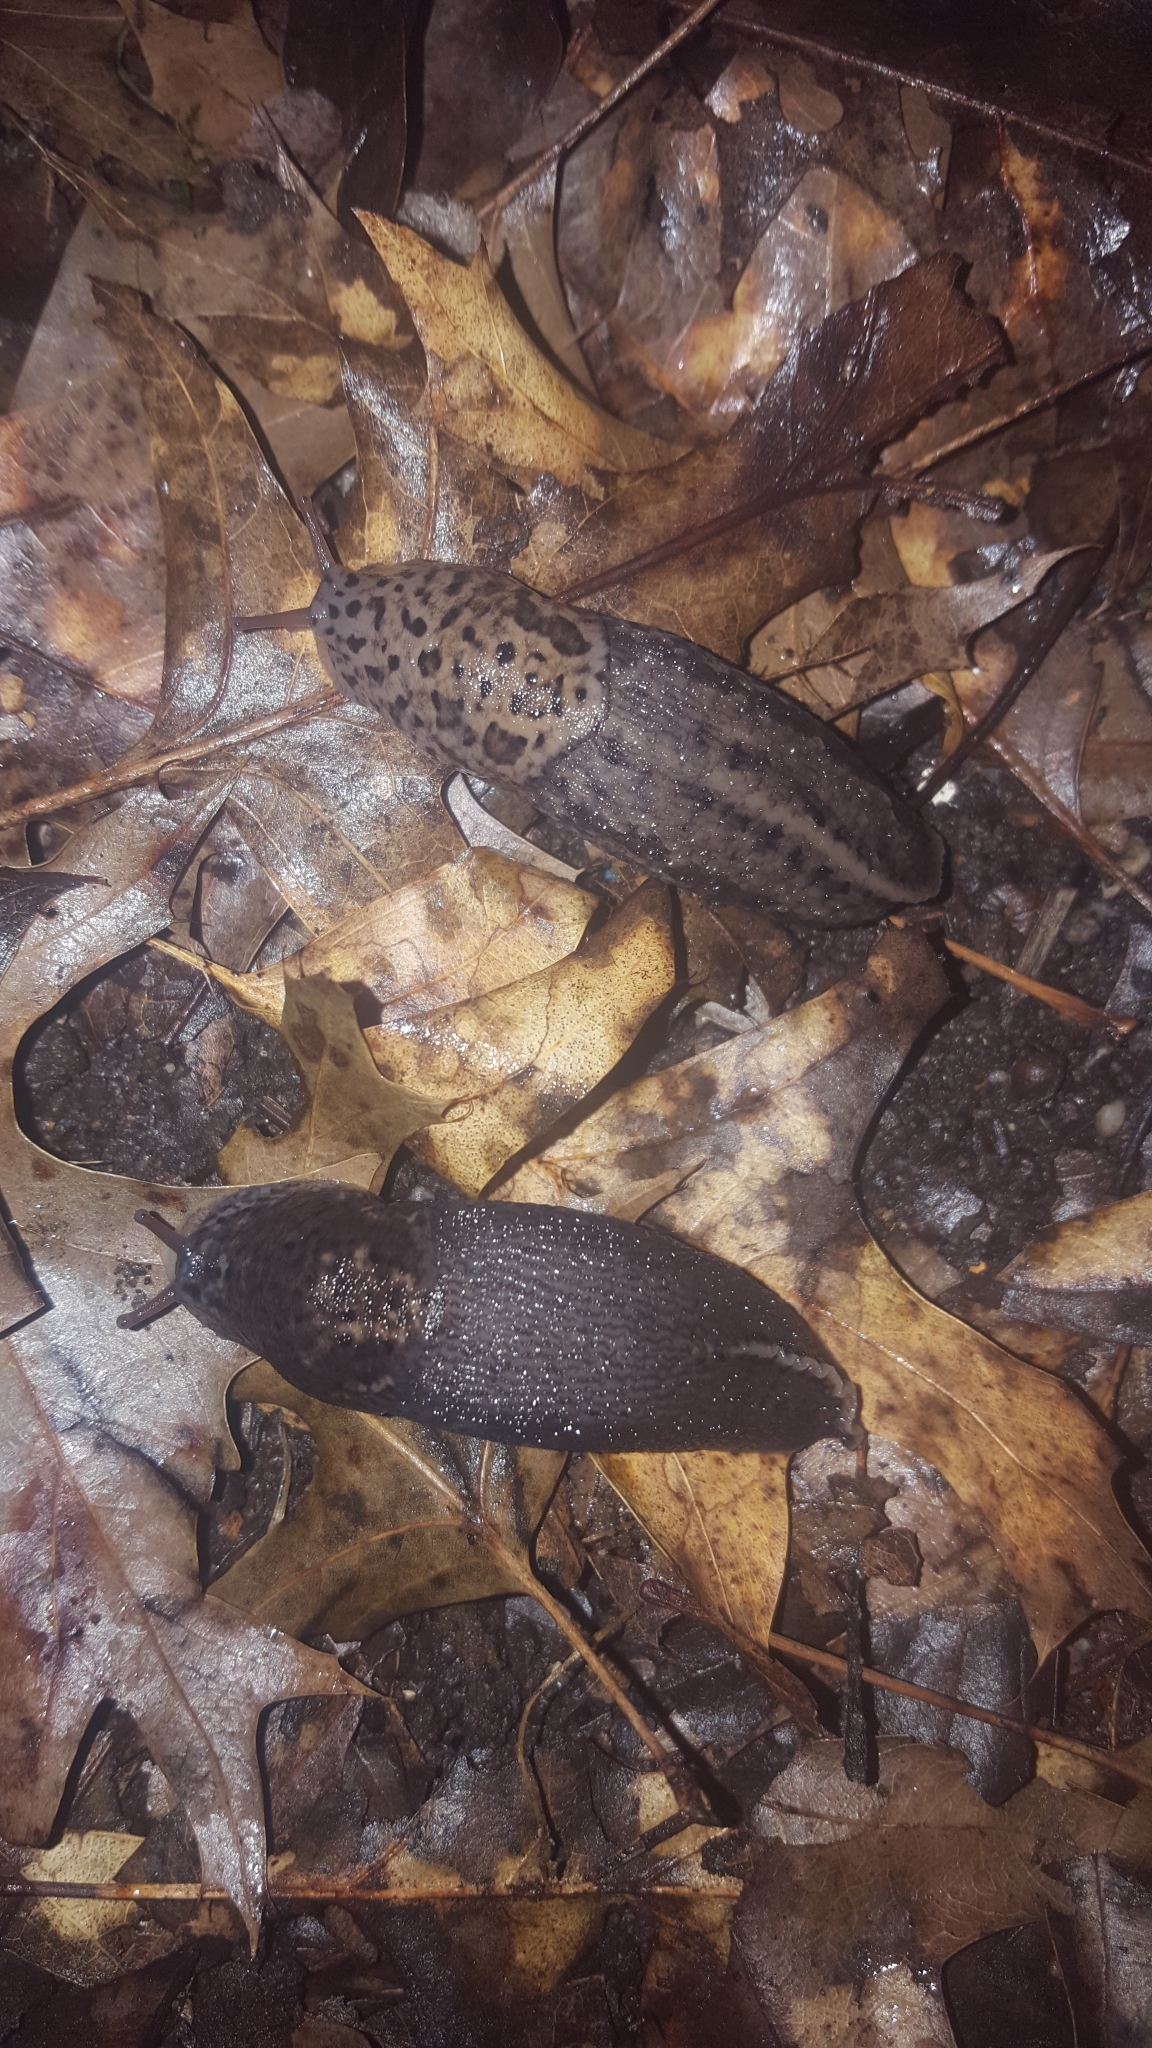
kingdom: Animalia
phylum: Mollusca
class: Gastropoda
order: Stylommatophora
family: Limacidae
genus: Limax
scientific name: Limax maximus
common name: Great grey slug
